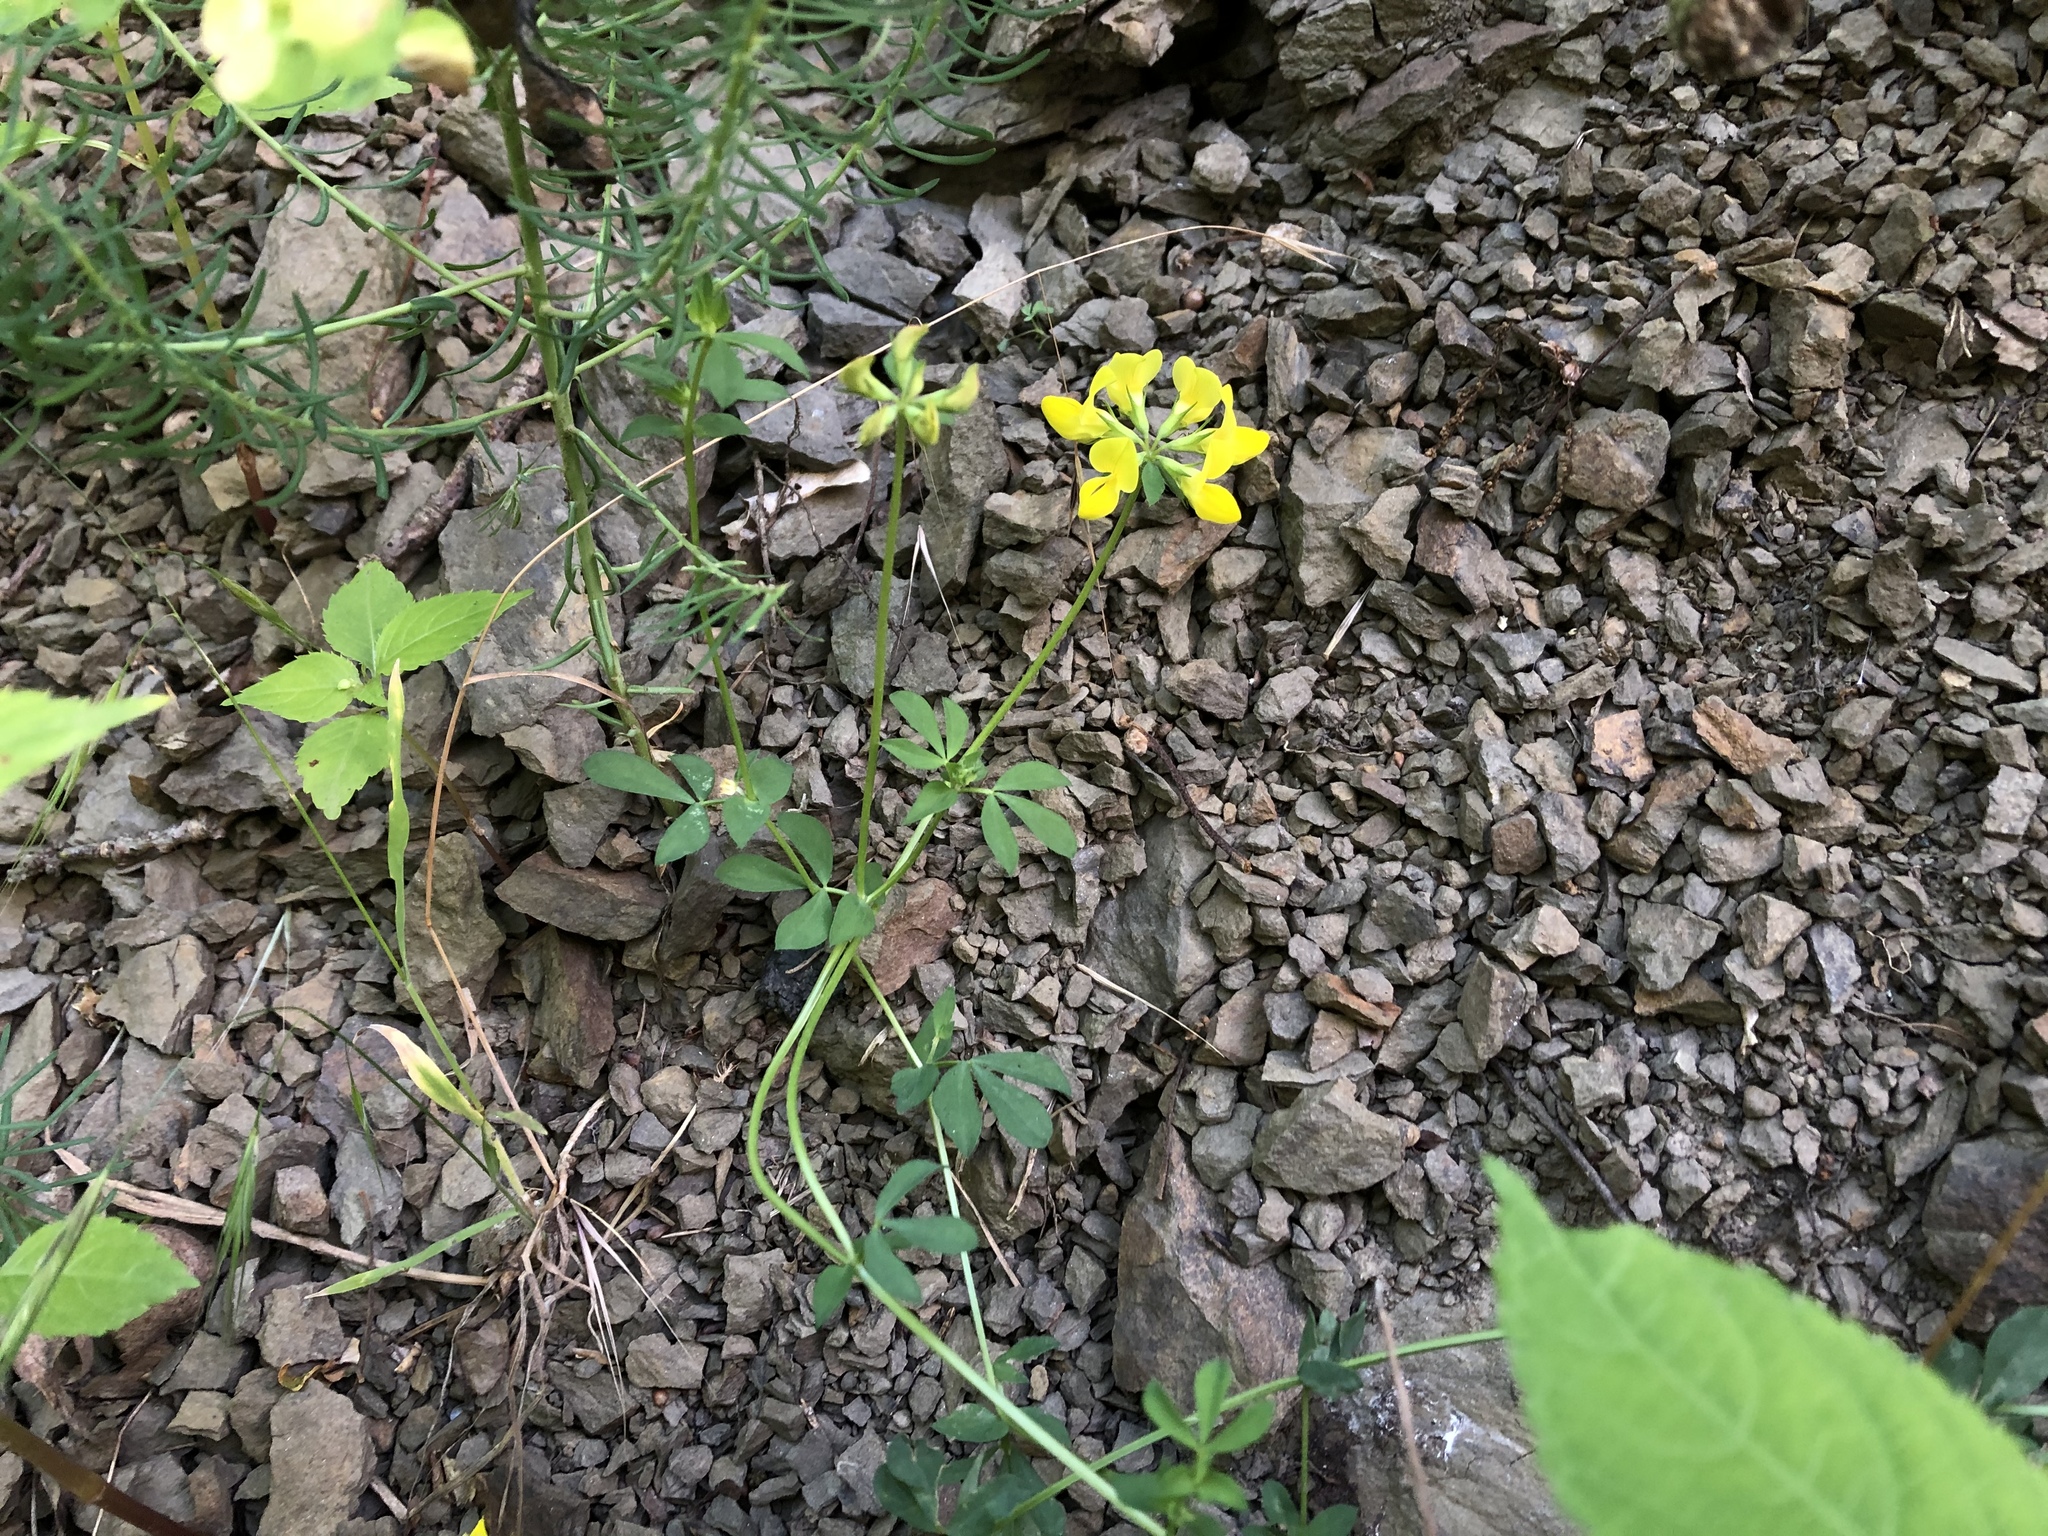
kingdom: Plantae
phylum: Tracheophyta
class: Magnoliopsida
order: Fabales
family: Fabaceae
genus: Lotus
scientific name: Lotus corniculatus
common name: Common bird's-foot-trefoil
